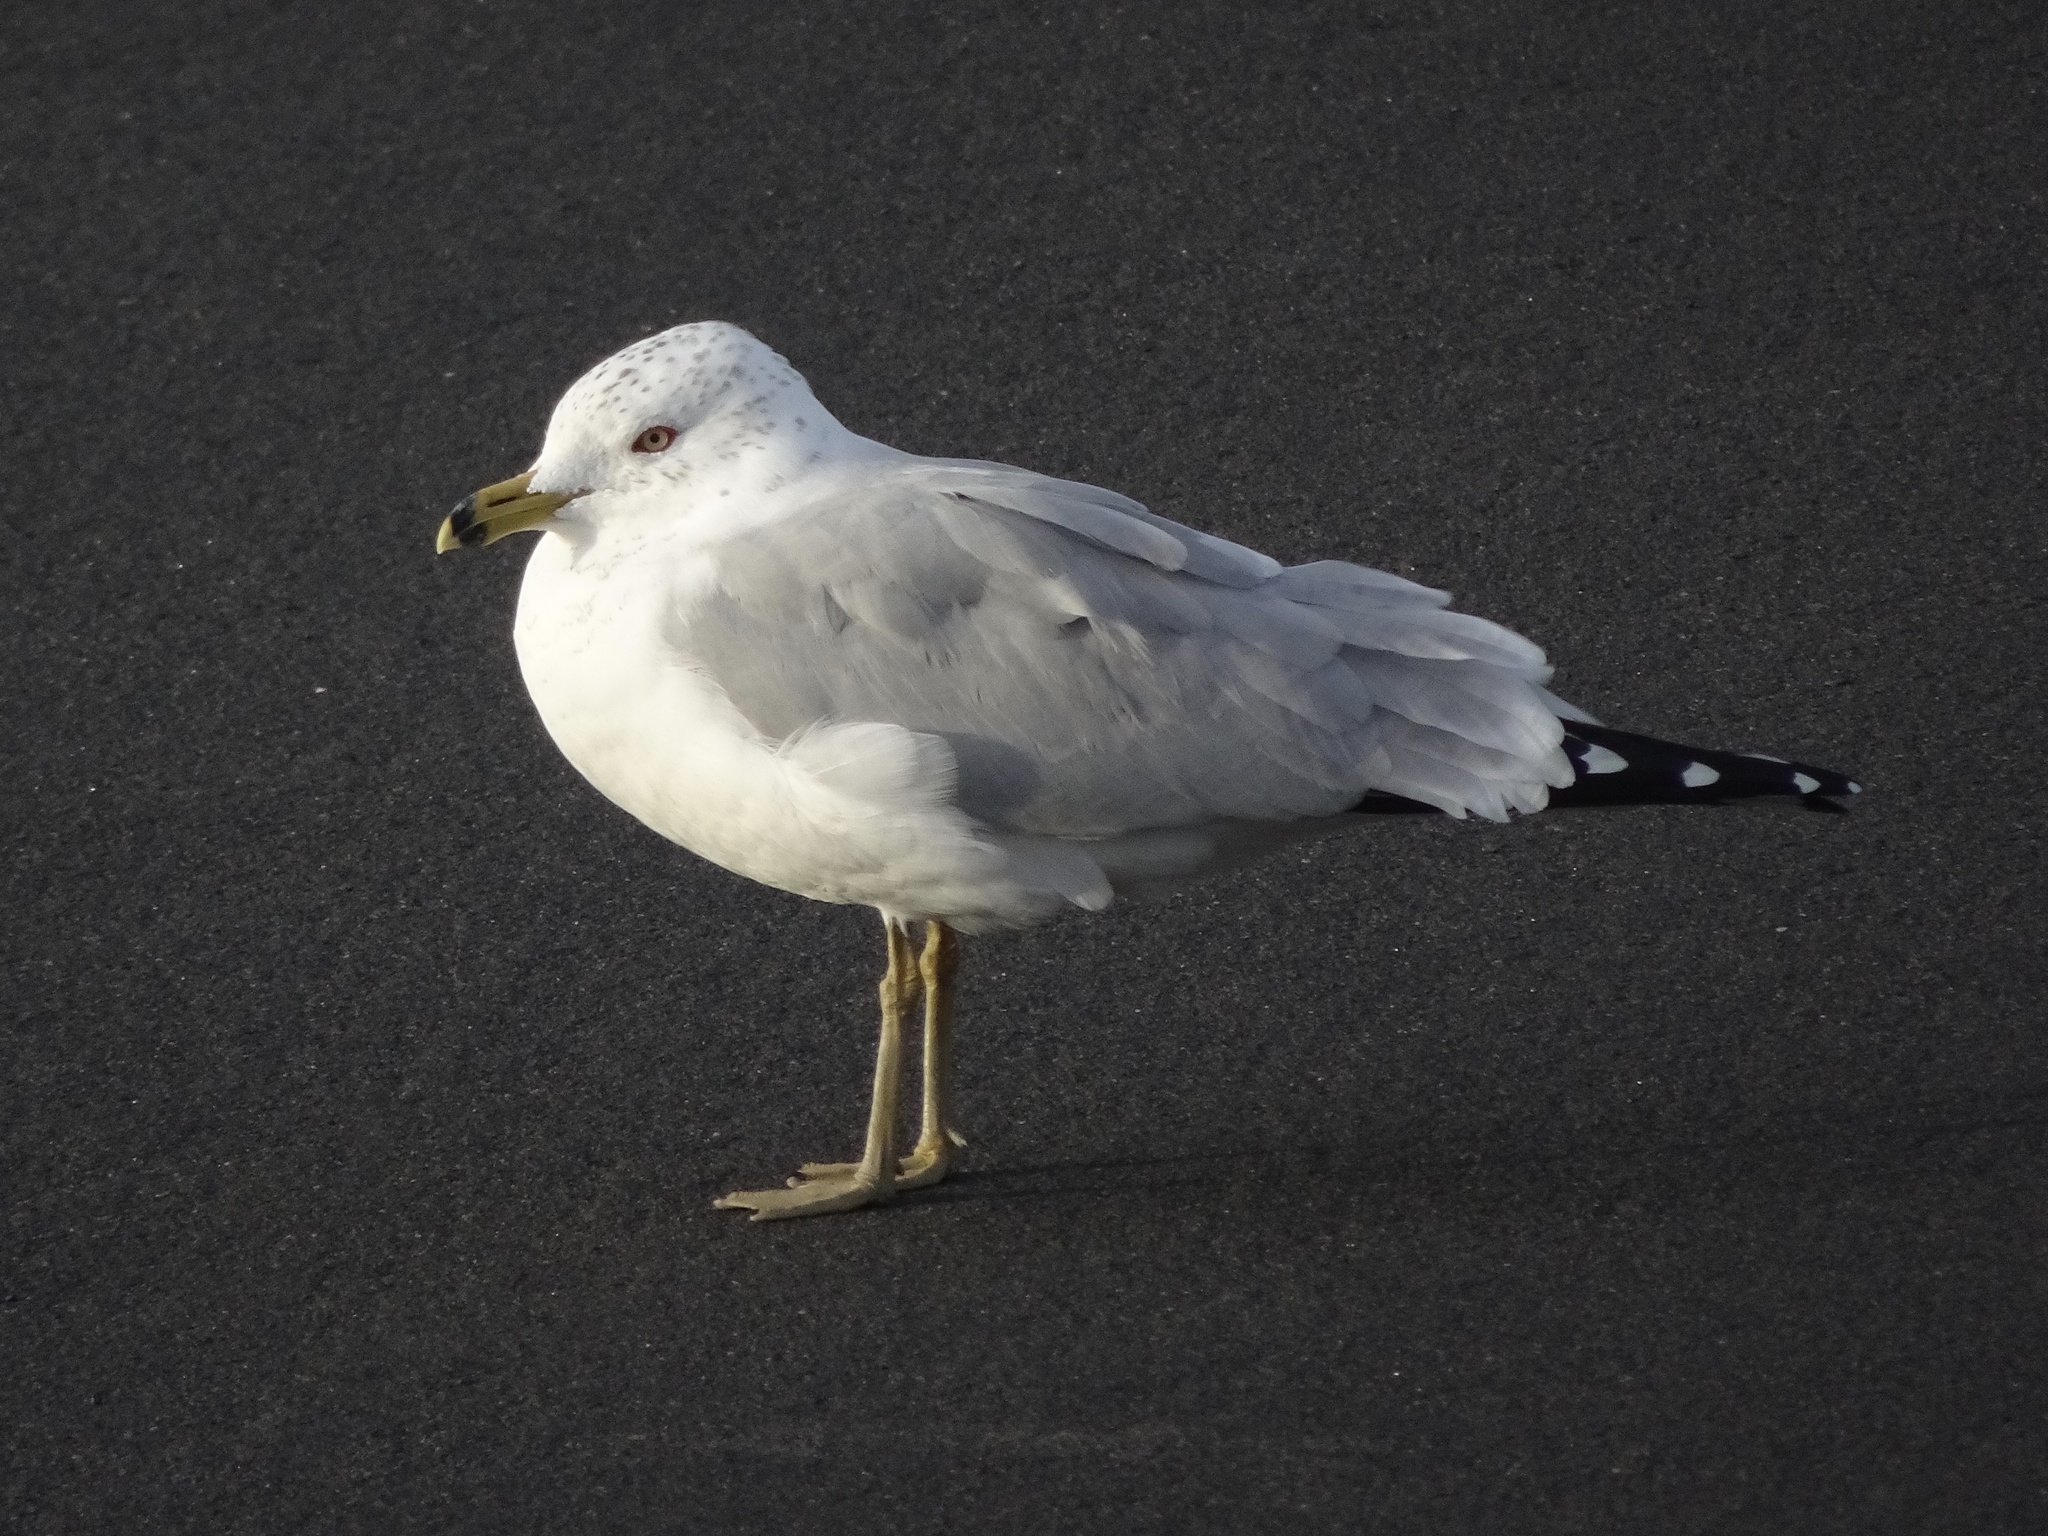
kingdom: Animalia
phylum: Chordata
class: Aves
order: Charadriiformes
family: Laridae
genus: Larus
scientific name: Larus delawarensis
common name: Ring-billed gull
